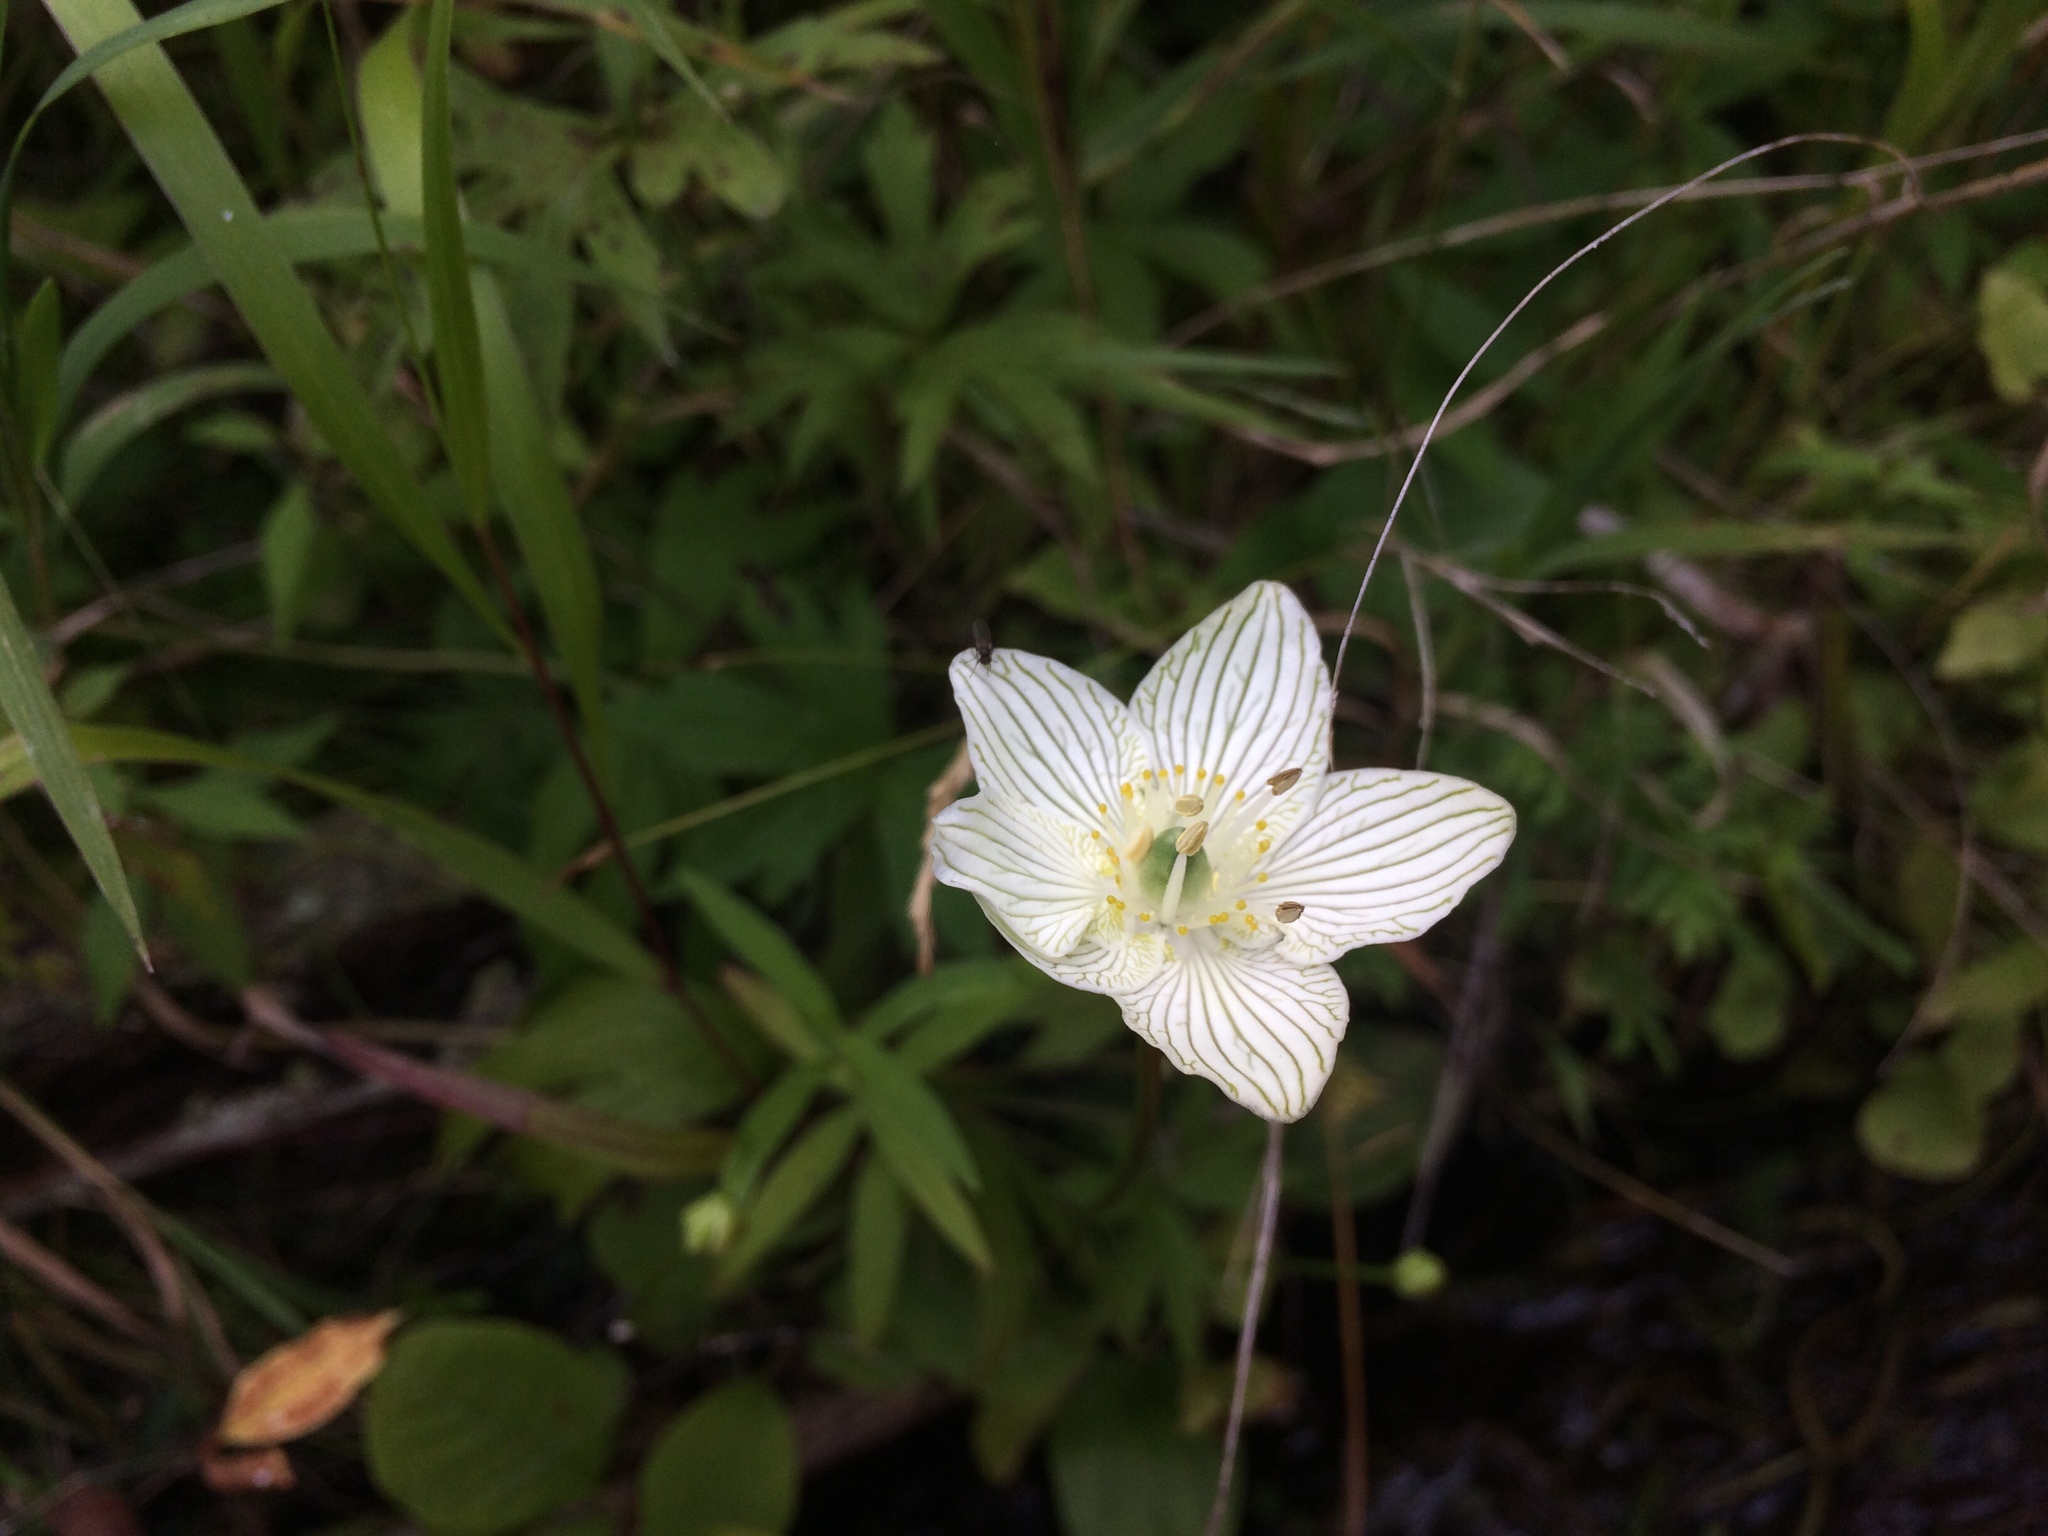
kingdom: Plantae
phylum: Tracheophyta
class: Magnoliopsida
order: Celastrales
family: Parnassiaceae
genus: Parnassia
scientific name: Parnassia glauca
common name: American grass-of-parnassus
